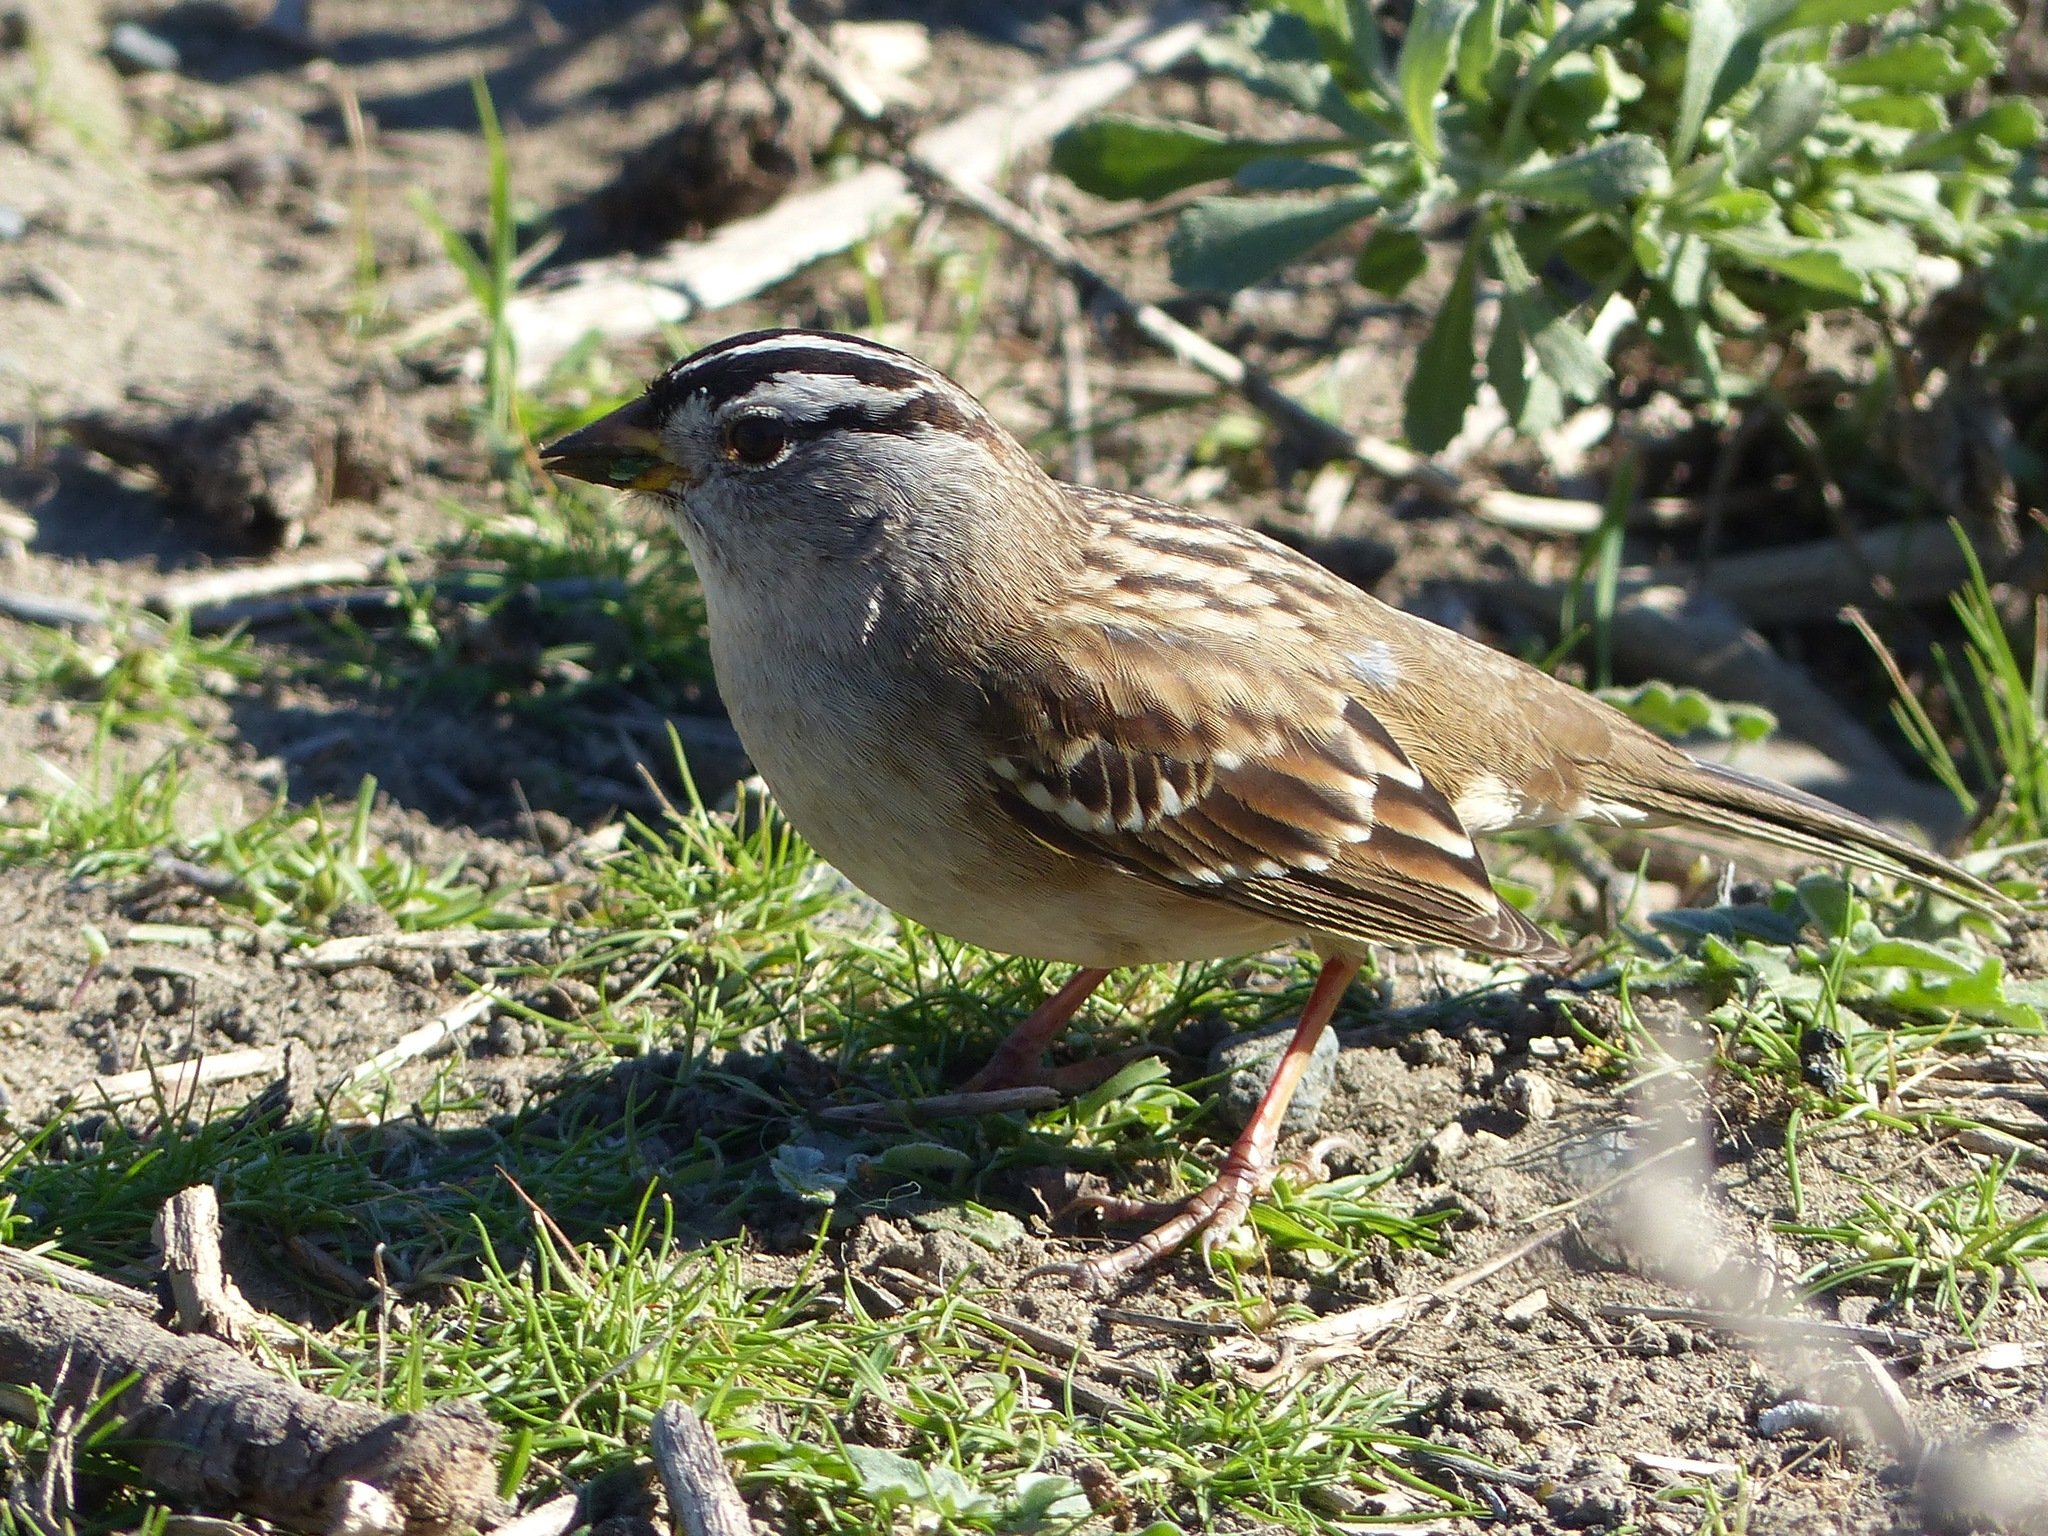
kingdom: Animalia
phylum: Chordata
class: Aves
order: Passeriformes
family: Passerellidae
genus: Zonotrichia
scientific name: Zonotrichia leucophrys
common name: White-crowned sparrow
